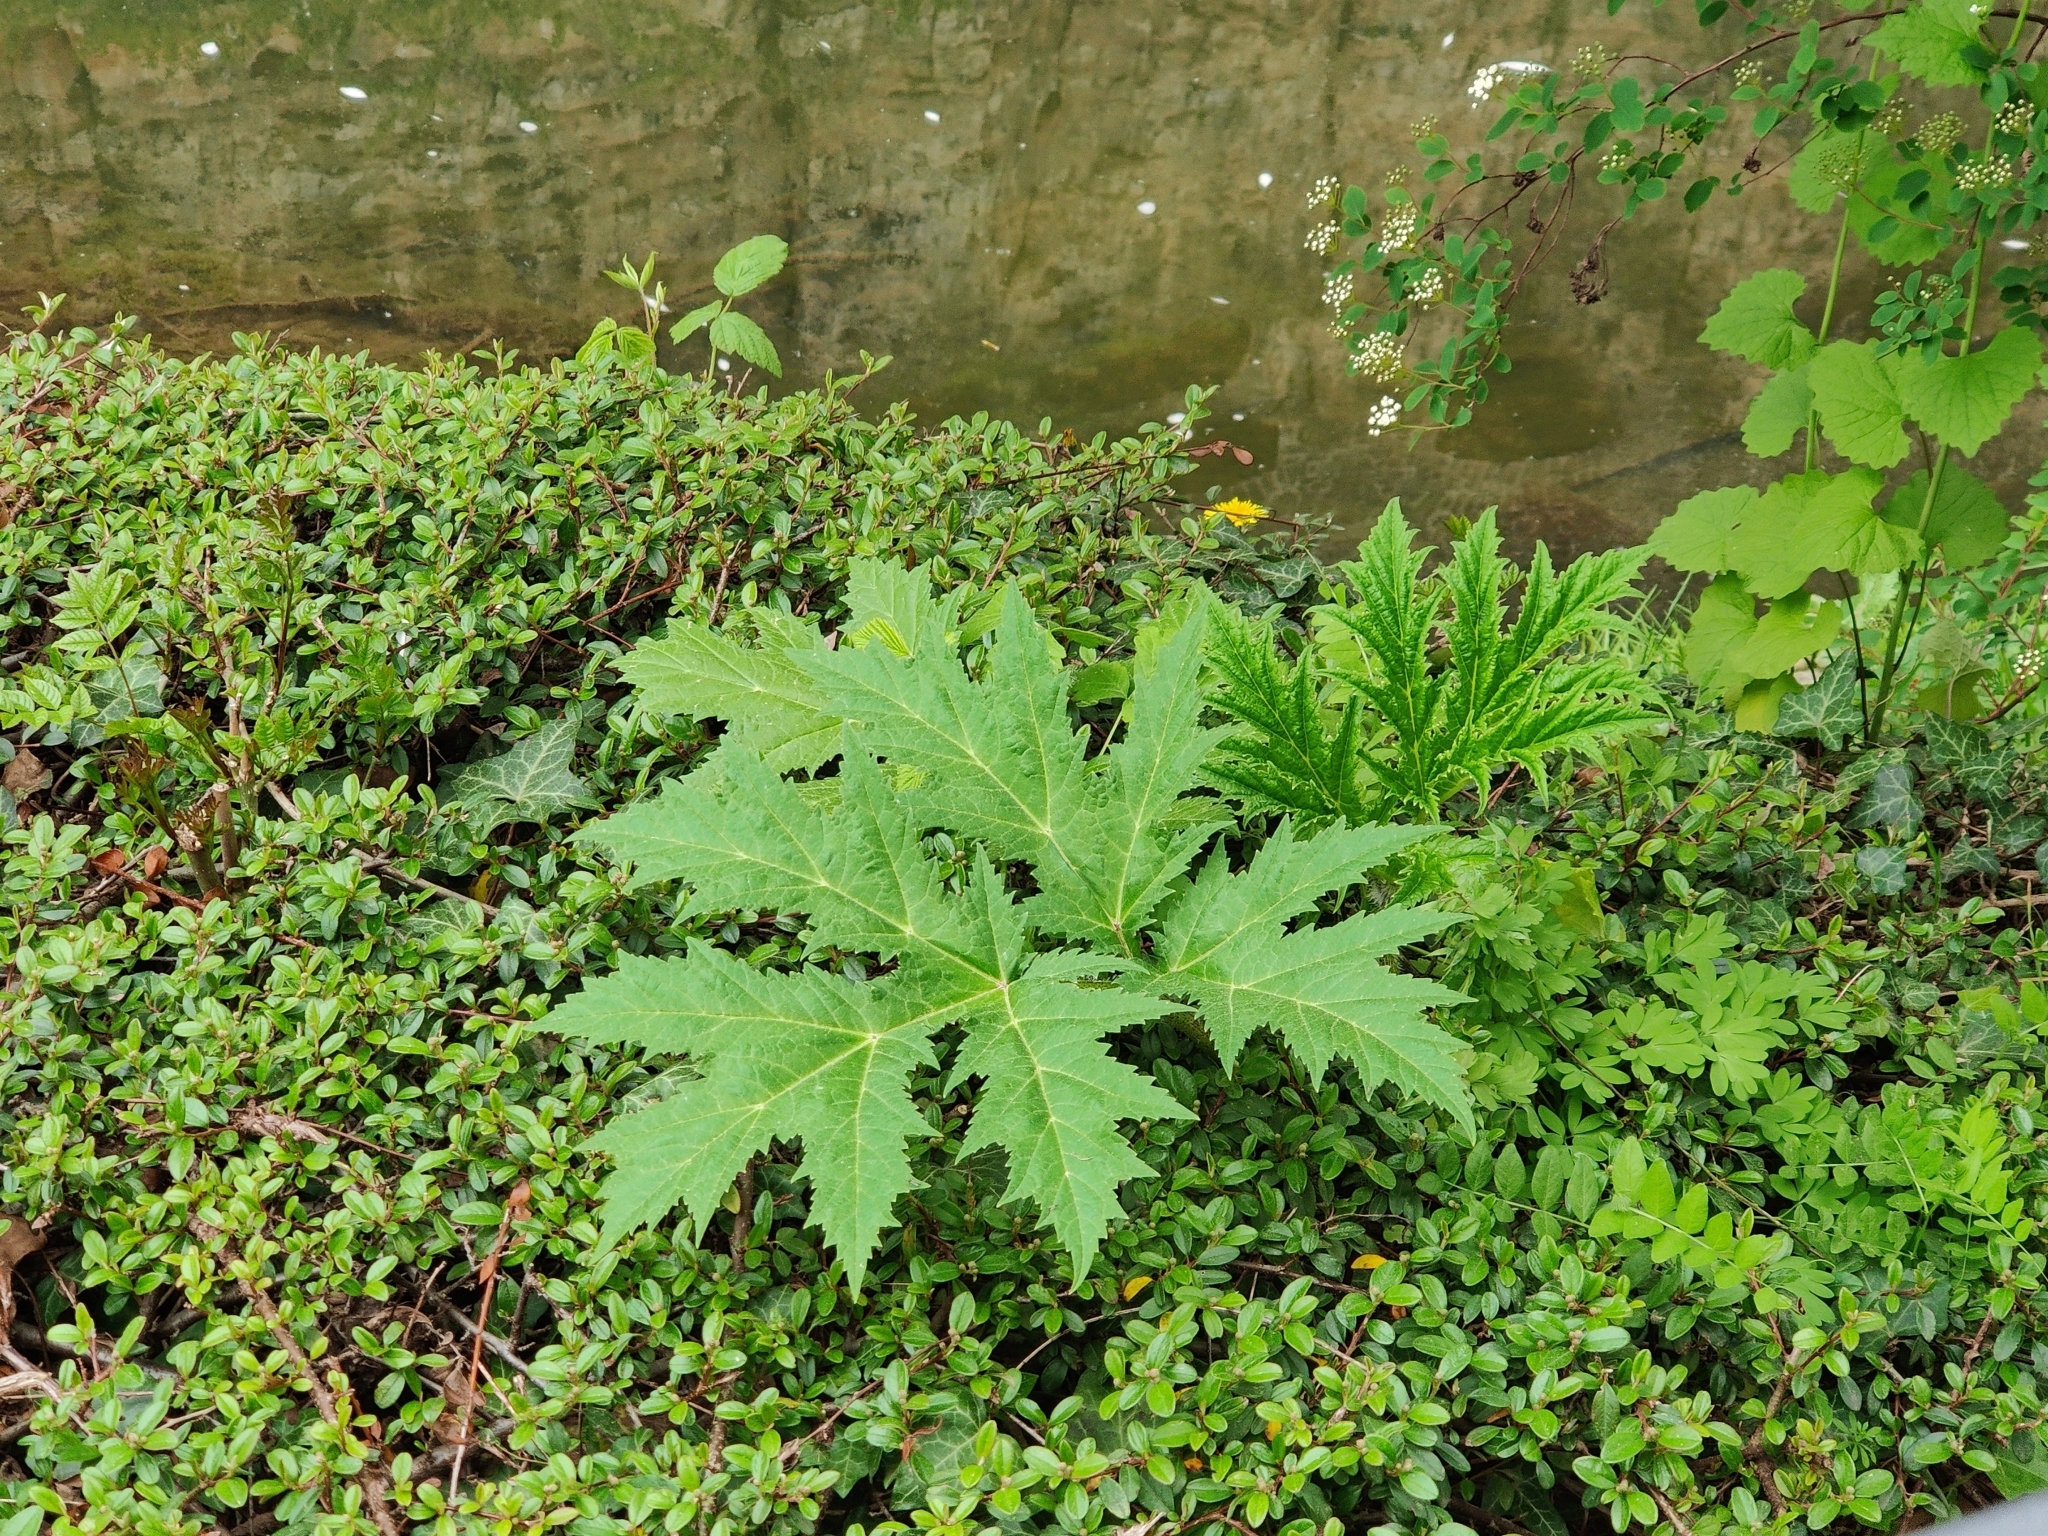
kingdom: Plantae
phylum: Tracheophyta
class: Magnoliopsida
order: Apiales
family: Apiaceae
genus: Heracleum
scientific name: Heracleum mantegazzianum
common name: Giant hogweed
